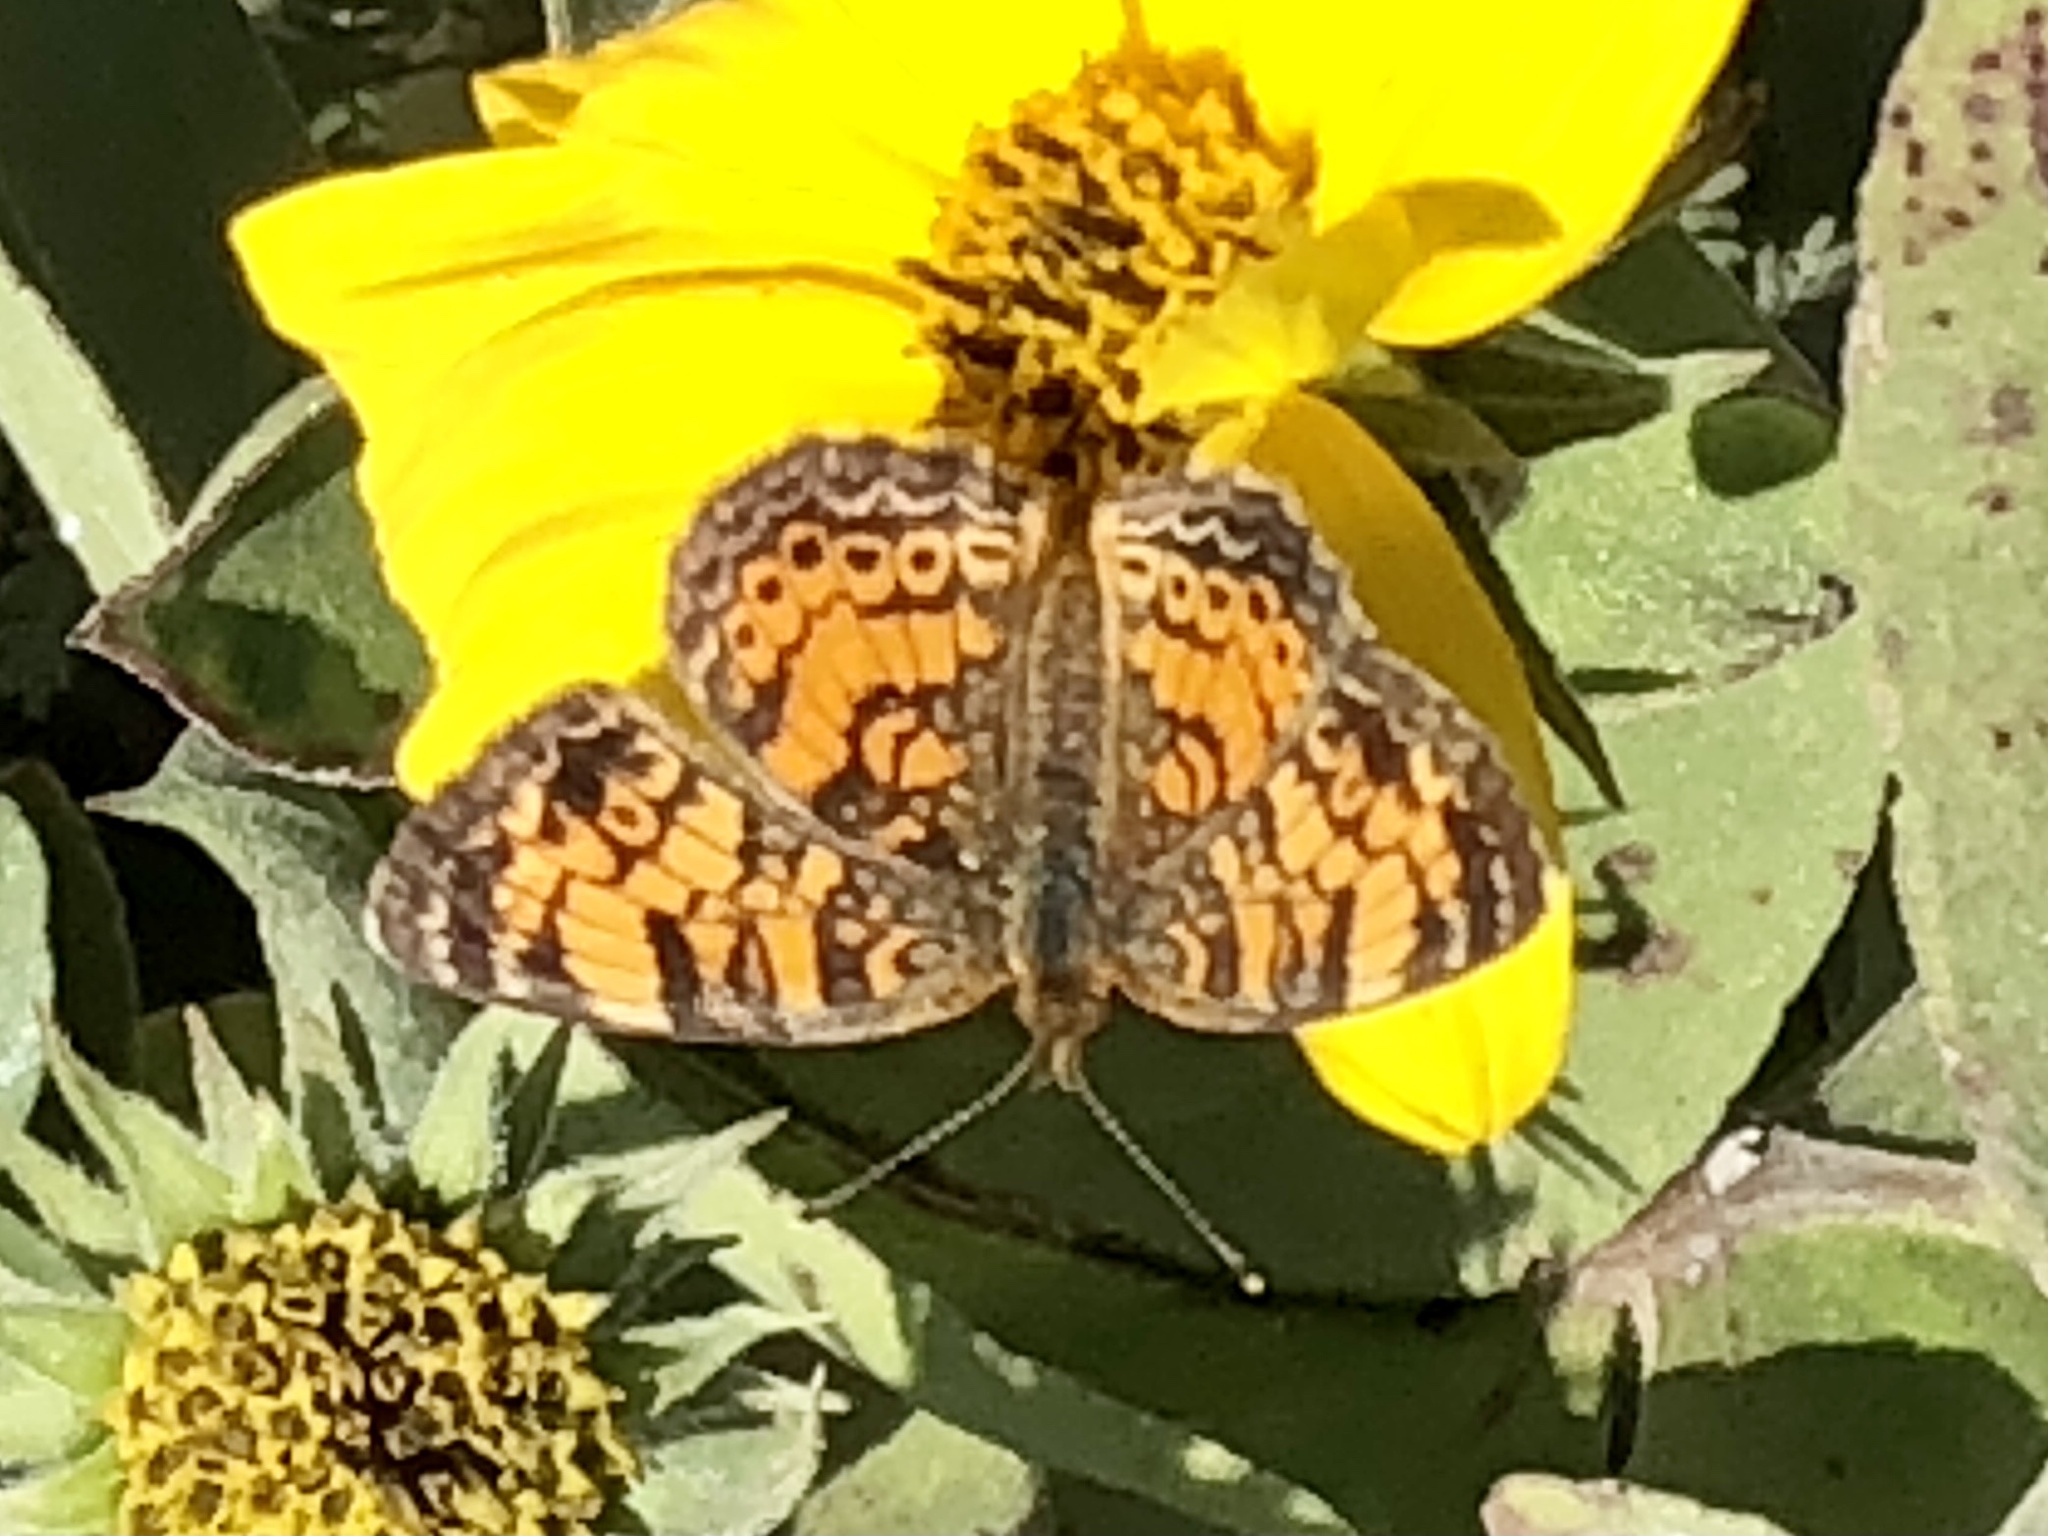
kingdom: Animalia
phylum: Arthropoda
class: Insecta
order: Lepidoptera
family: Nymphalidae
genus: Phyciodes
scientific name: Phyciodes tharos
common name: Pearl crescent
